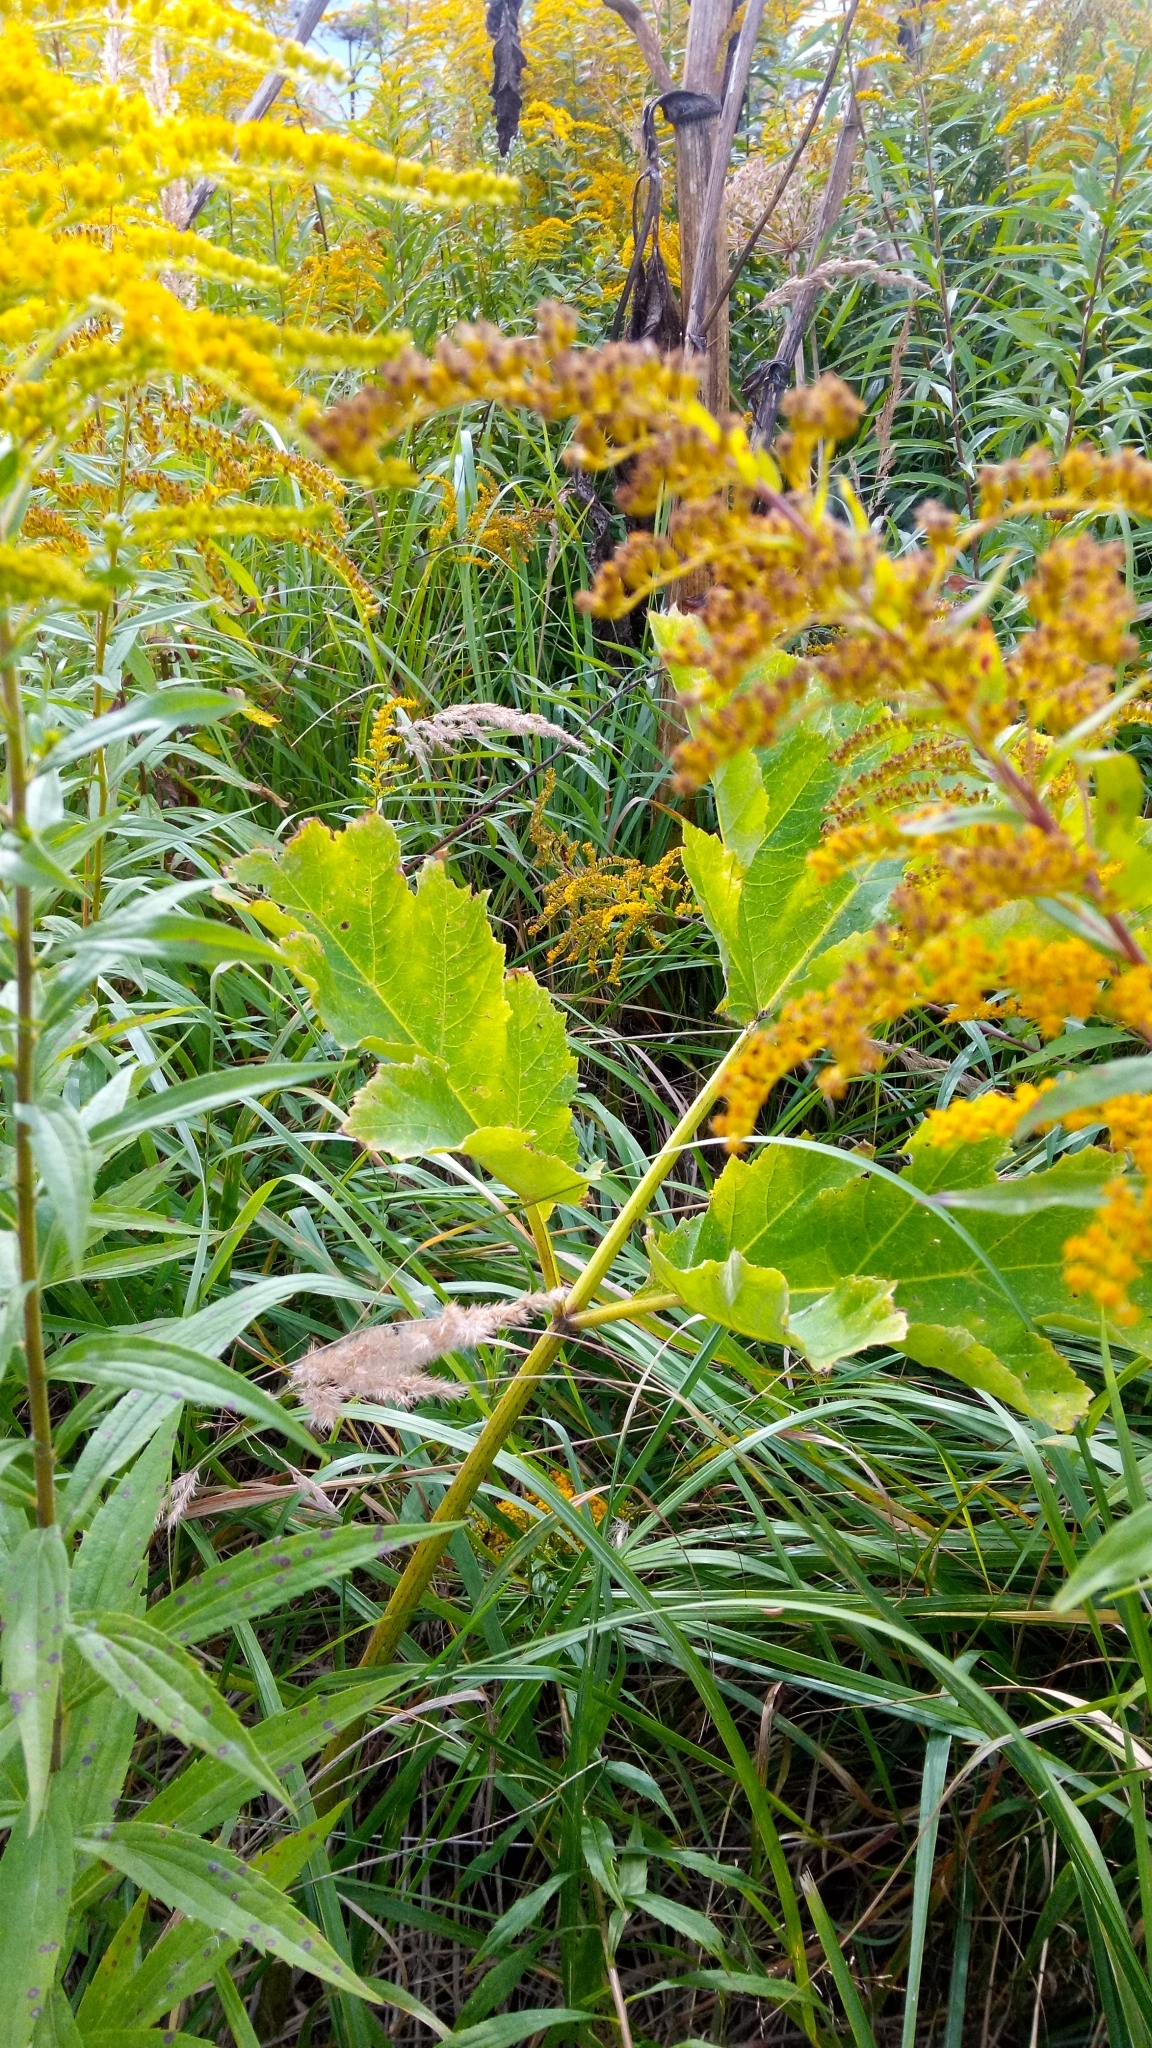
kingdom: Plantae
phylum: Tracheophyta
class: Magnoliopsida
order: Apiales
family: Apiaceae
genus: Heracleum
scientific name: Heracleum sosnowskyi
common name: Sosnowsky's hogweed
